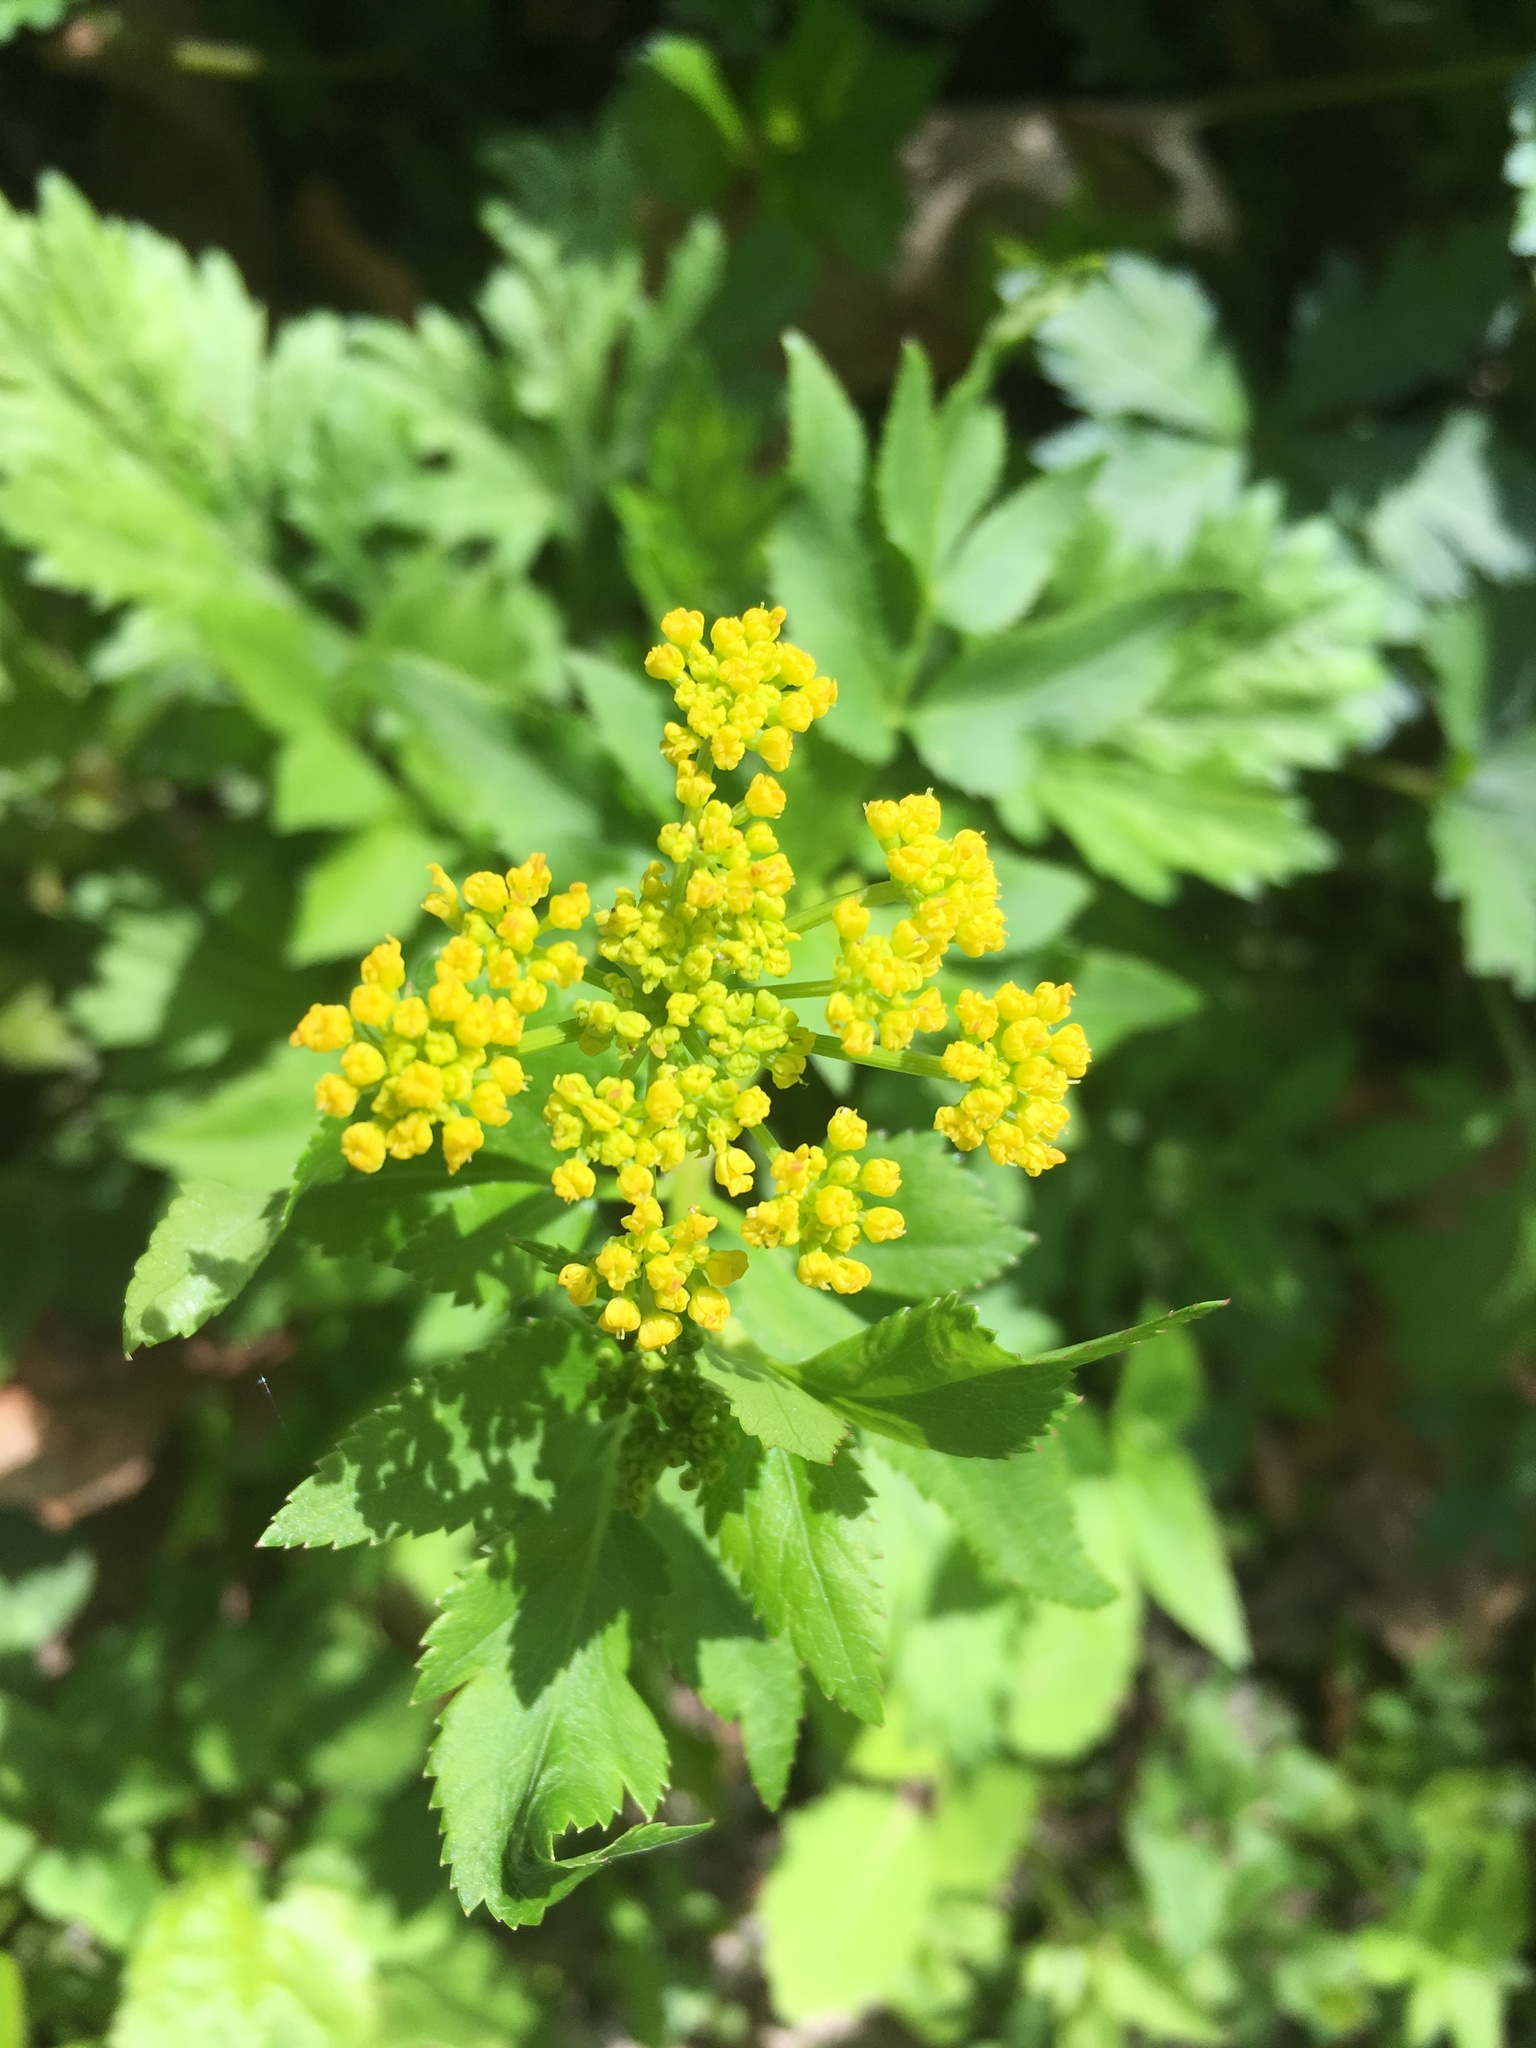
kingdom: Plantae
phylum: Tracheophyta
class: Magnoliopsida
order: Apiales
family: Apiaceae
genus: Zizia
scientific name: Zizia aurea
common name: Golden alexanders
